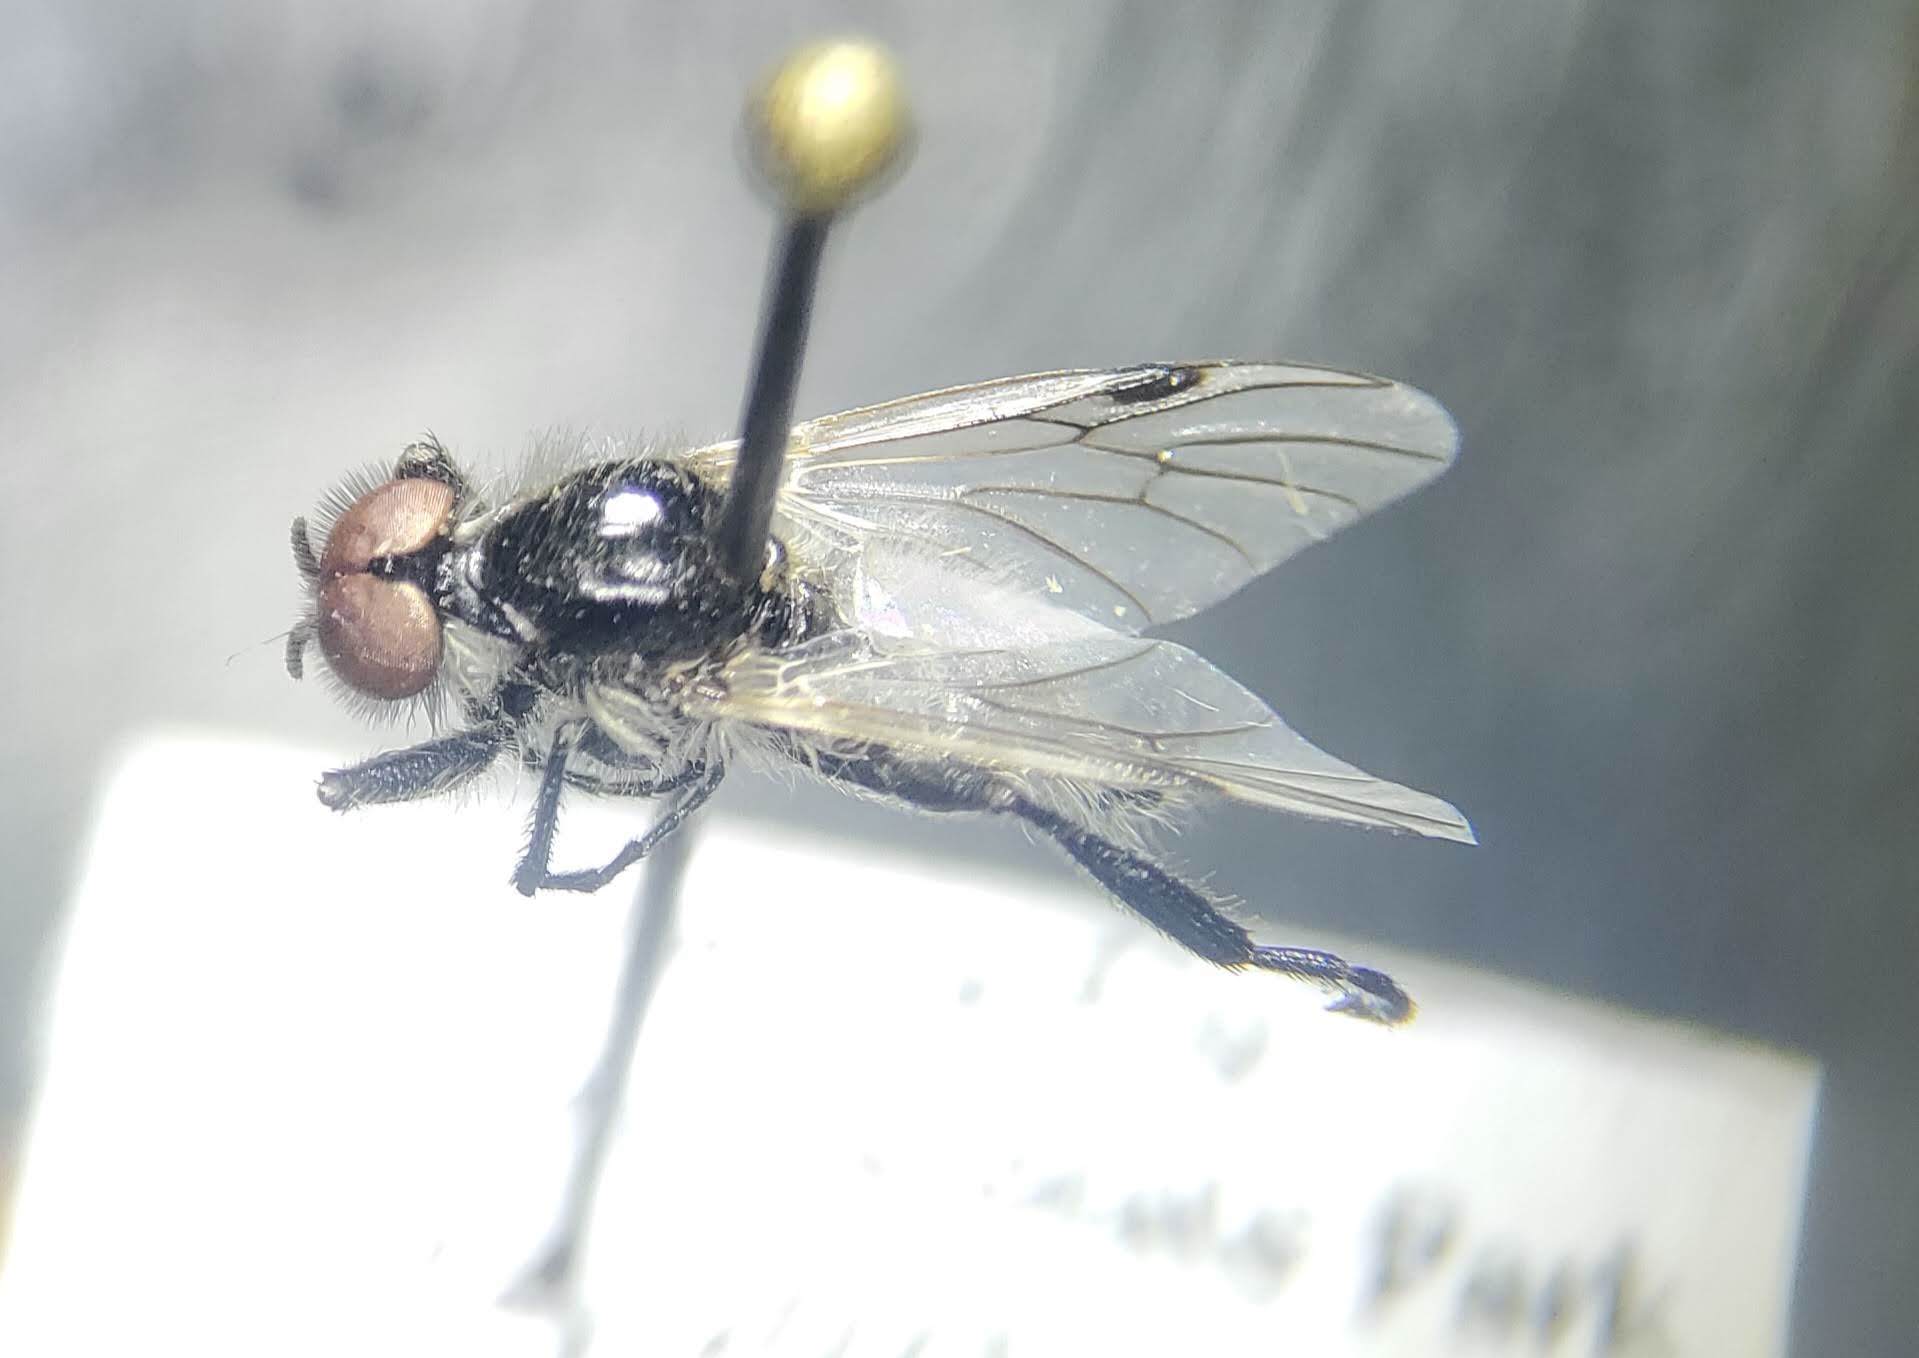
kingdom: Animalia
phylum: Arthropoda
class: Insecta
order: Diptera
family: Bibionidae
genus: Bibio
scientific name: Bibio albipennis
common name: White-winged march fly
